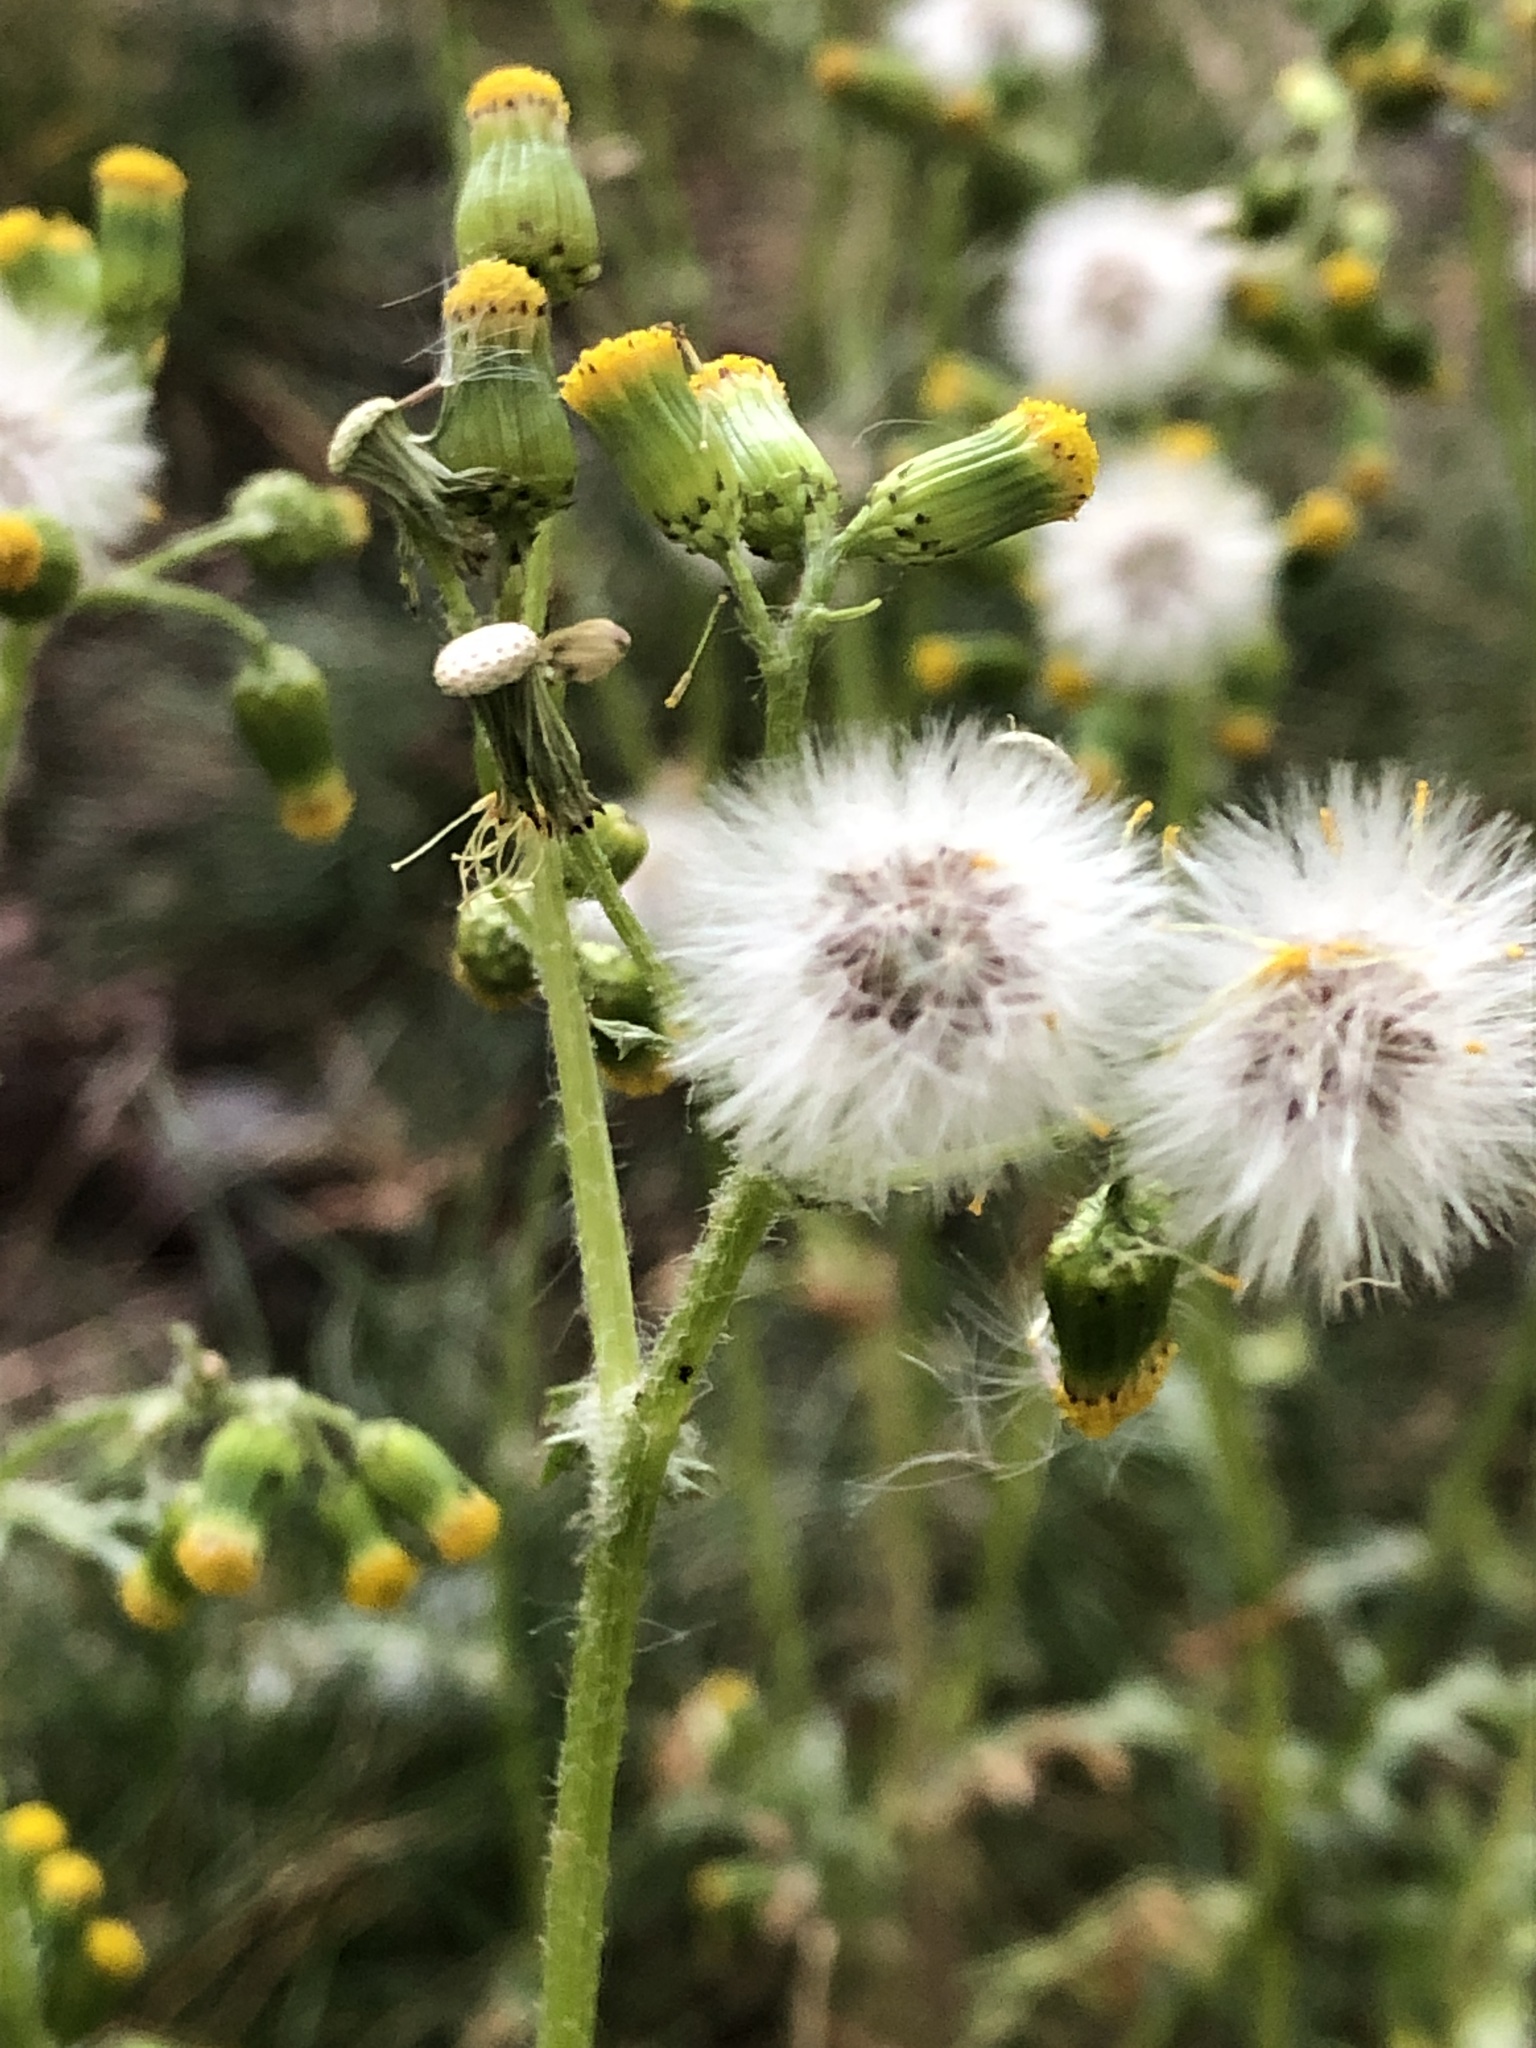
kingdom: Plantae
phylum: Tracheophyta
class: Magnoliopsida
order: Asterales
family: Asteraceae
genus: Senecio
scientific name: Senecio vulgaris
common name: Old-man-in-the-spring
